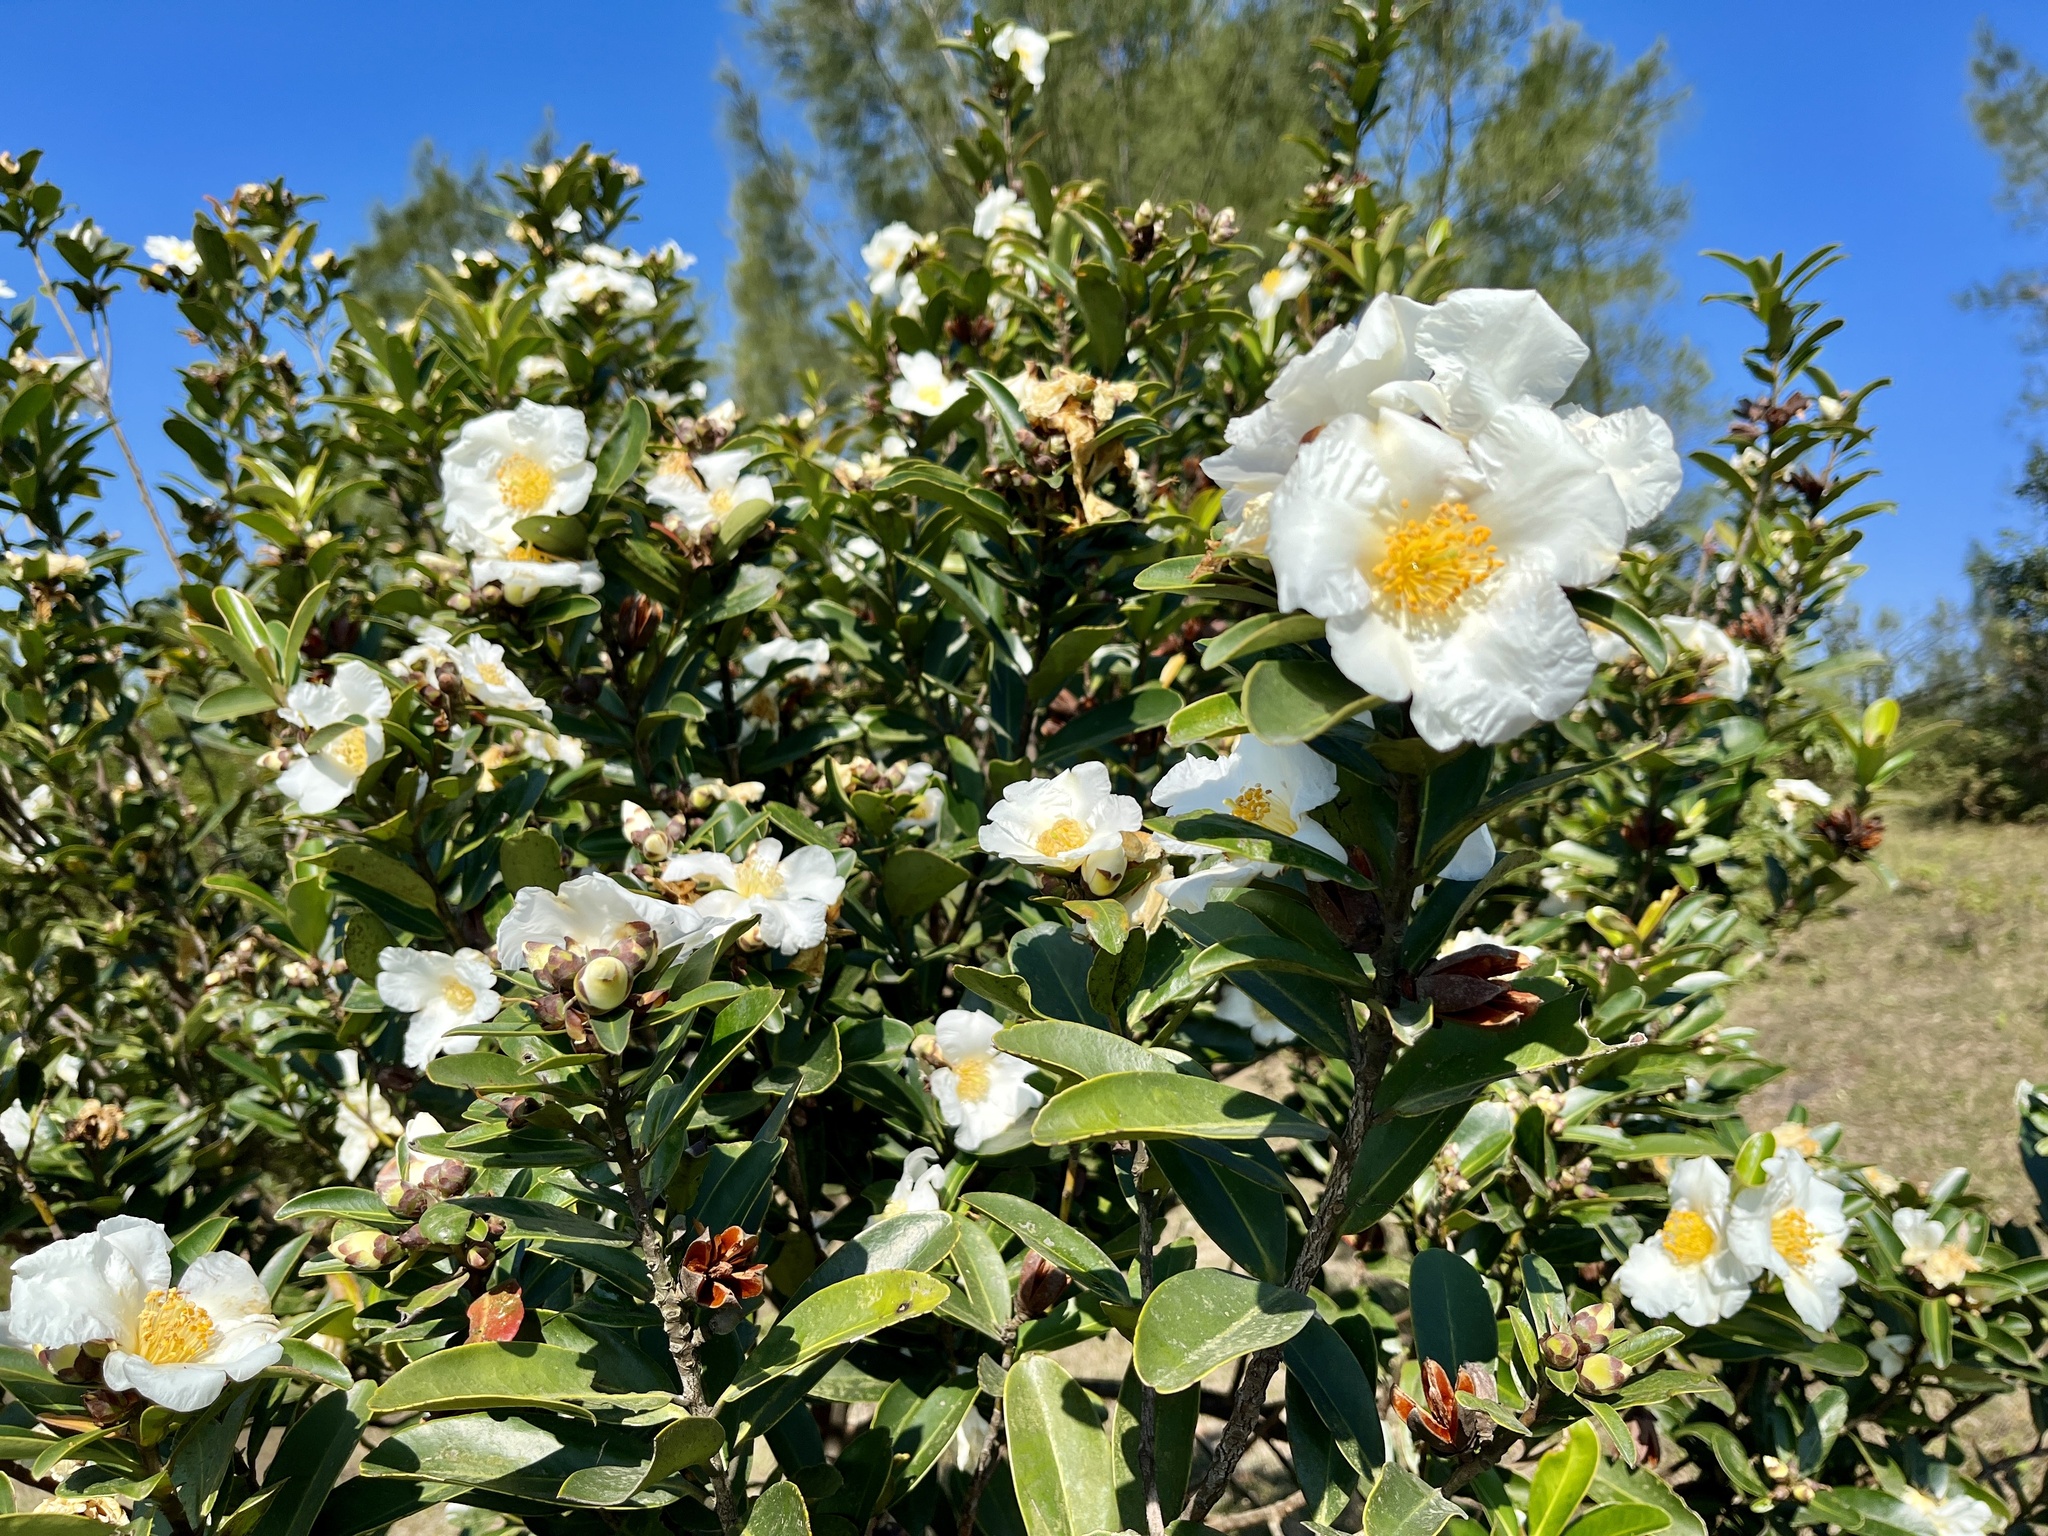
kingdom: Plantae
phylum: Tracheophyta
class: Magnoliopsida
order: Ericales
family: Theaceae
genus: Polyspora
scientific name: Polyspora axillaris
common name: Fried egg tree
